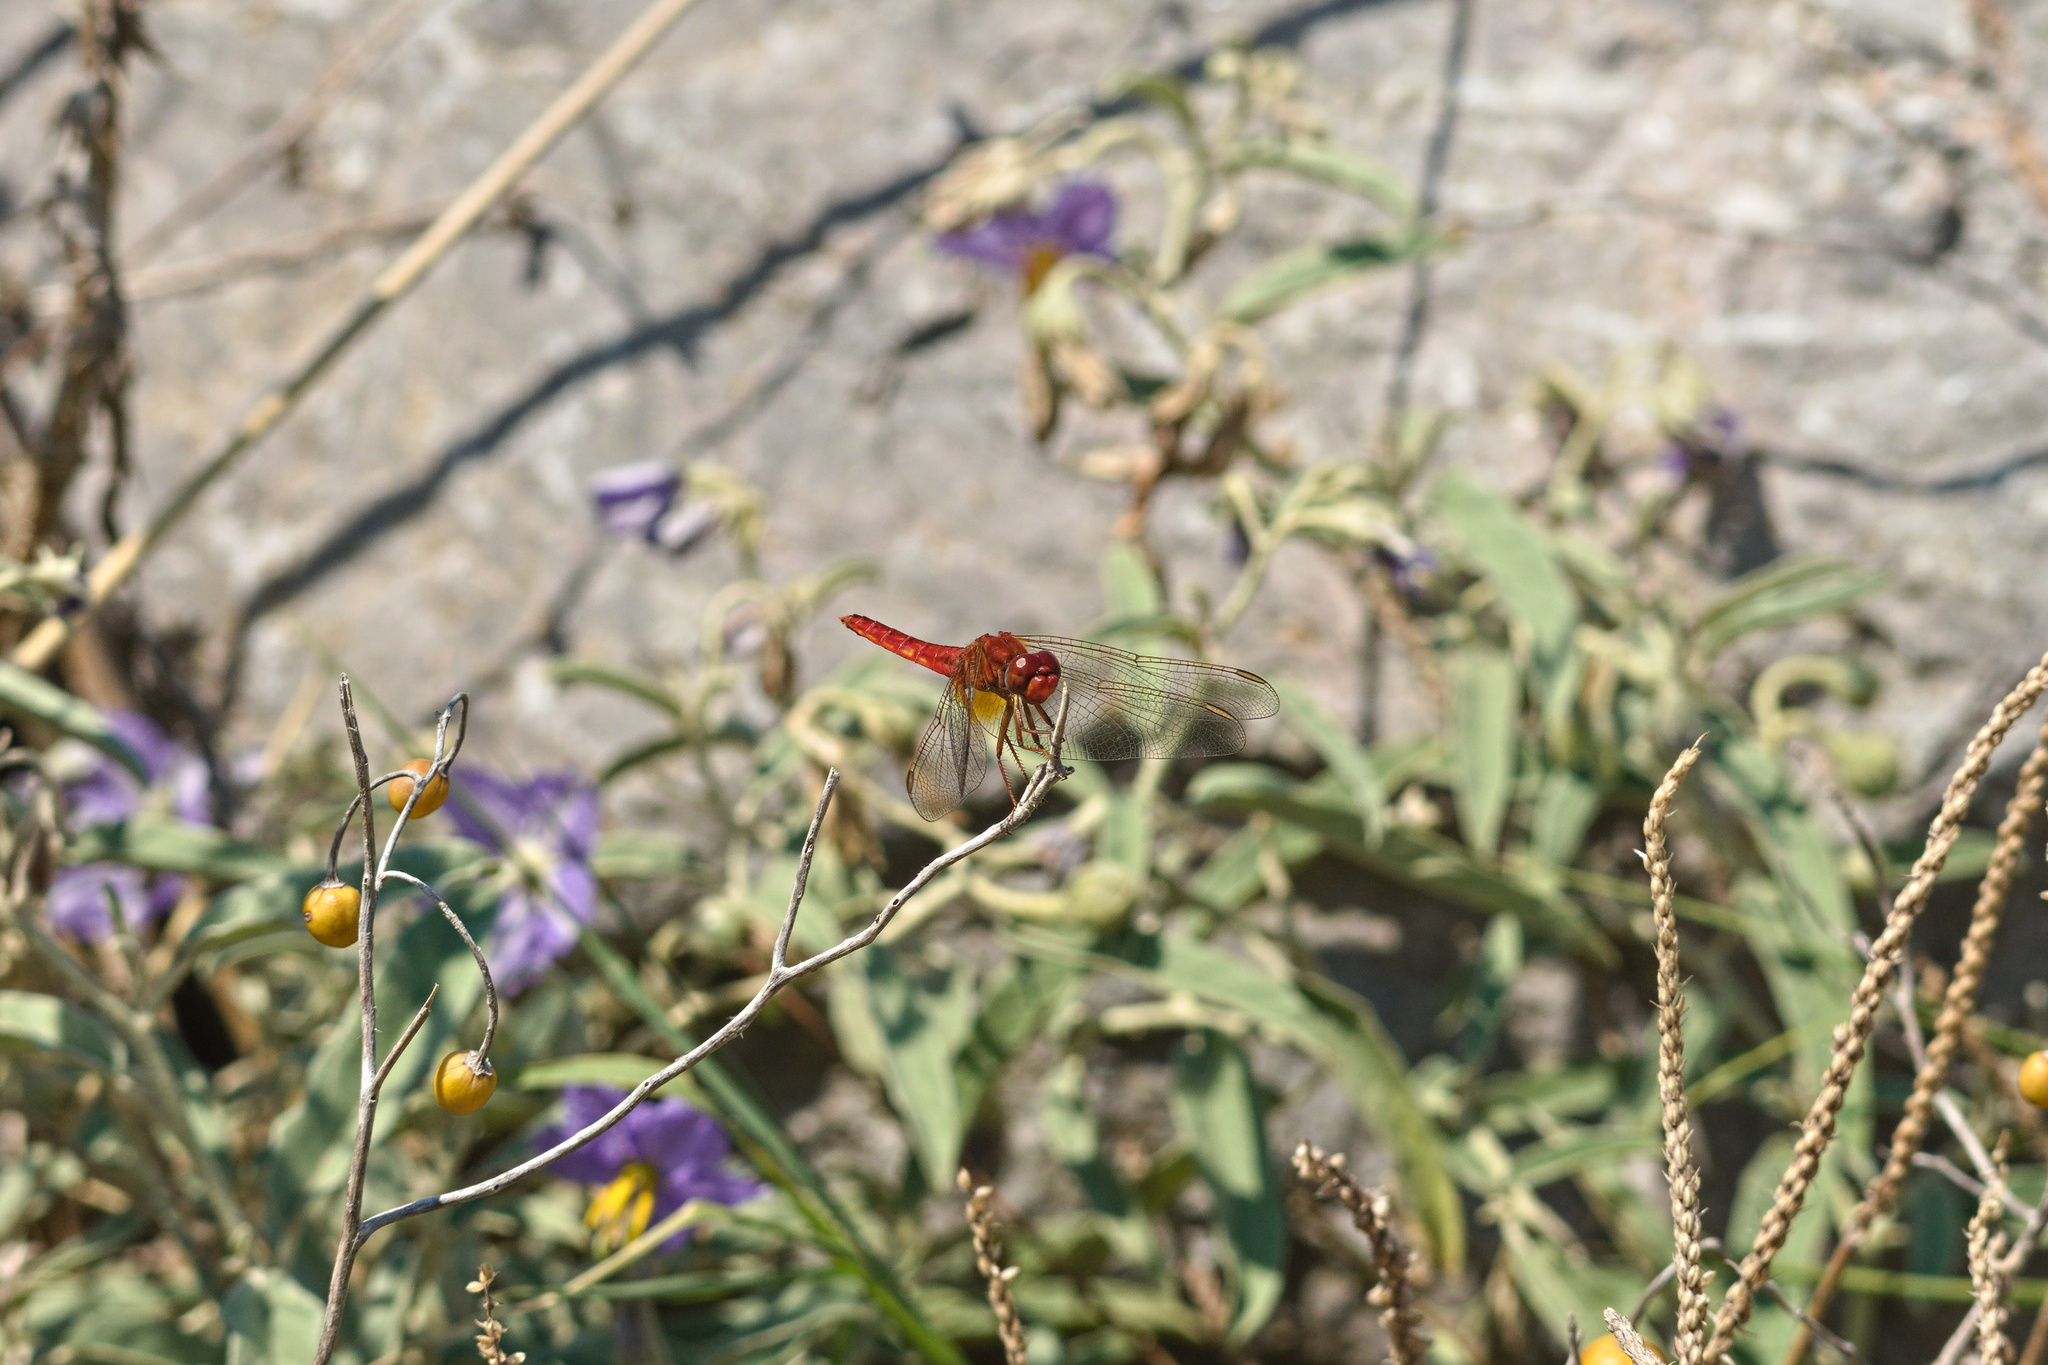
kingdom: Animalia
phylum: Arthropoda
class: Insecta
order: Odonata
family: Libellulidae
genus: Crocothemis
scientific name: Crocothemis erythraea
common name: Scarlet dragonfly
